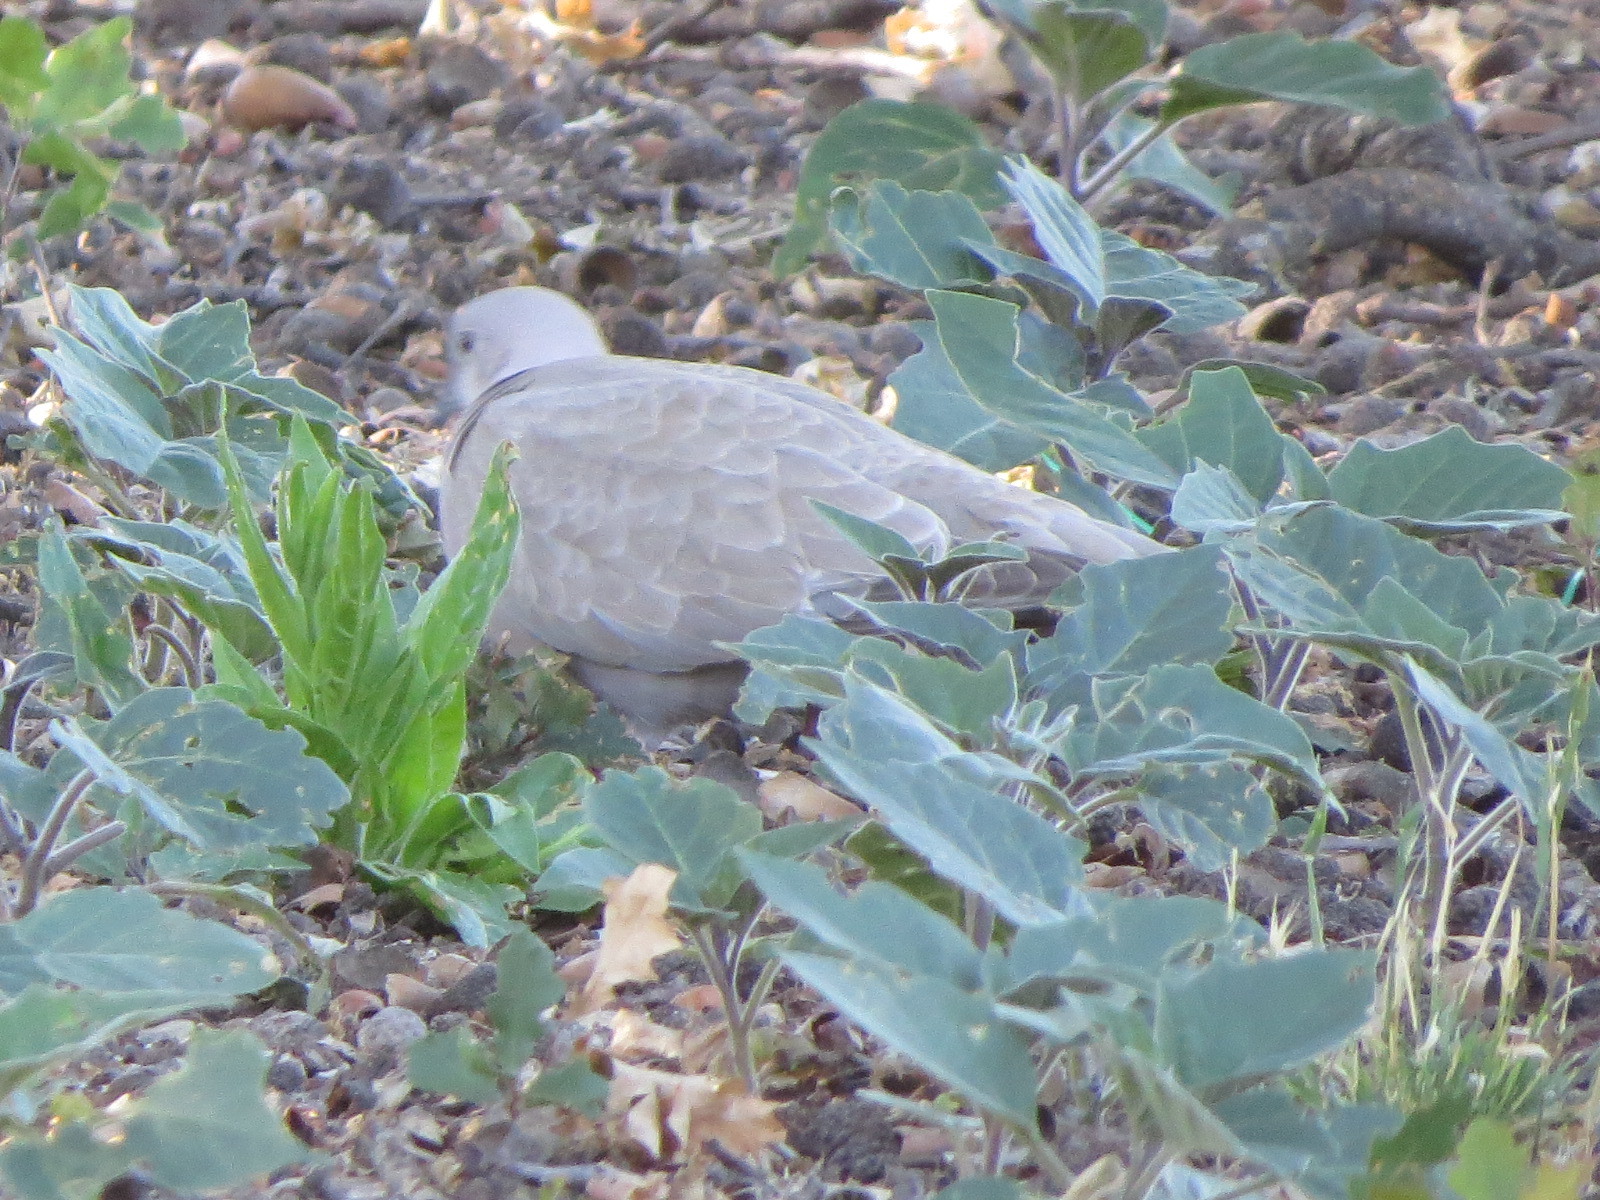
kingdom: Animalia
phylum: Chordata
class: Aves
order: Columbiformes
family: Columbidae
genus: Streptopelia
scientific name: Streptopelia decaocto
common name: Eurasian collared dove
